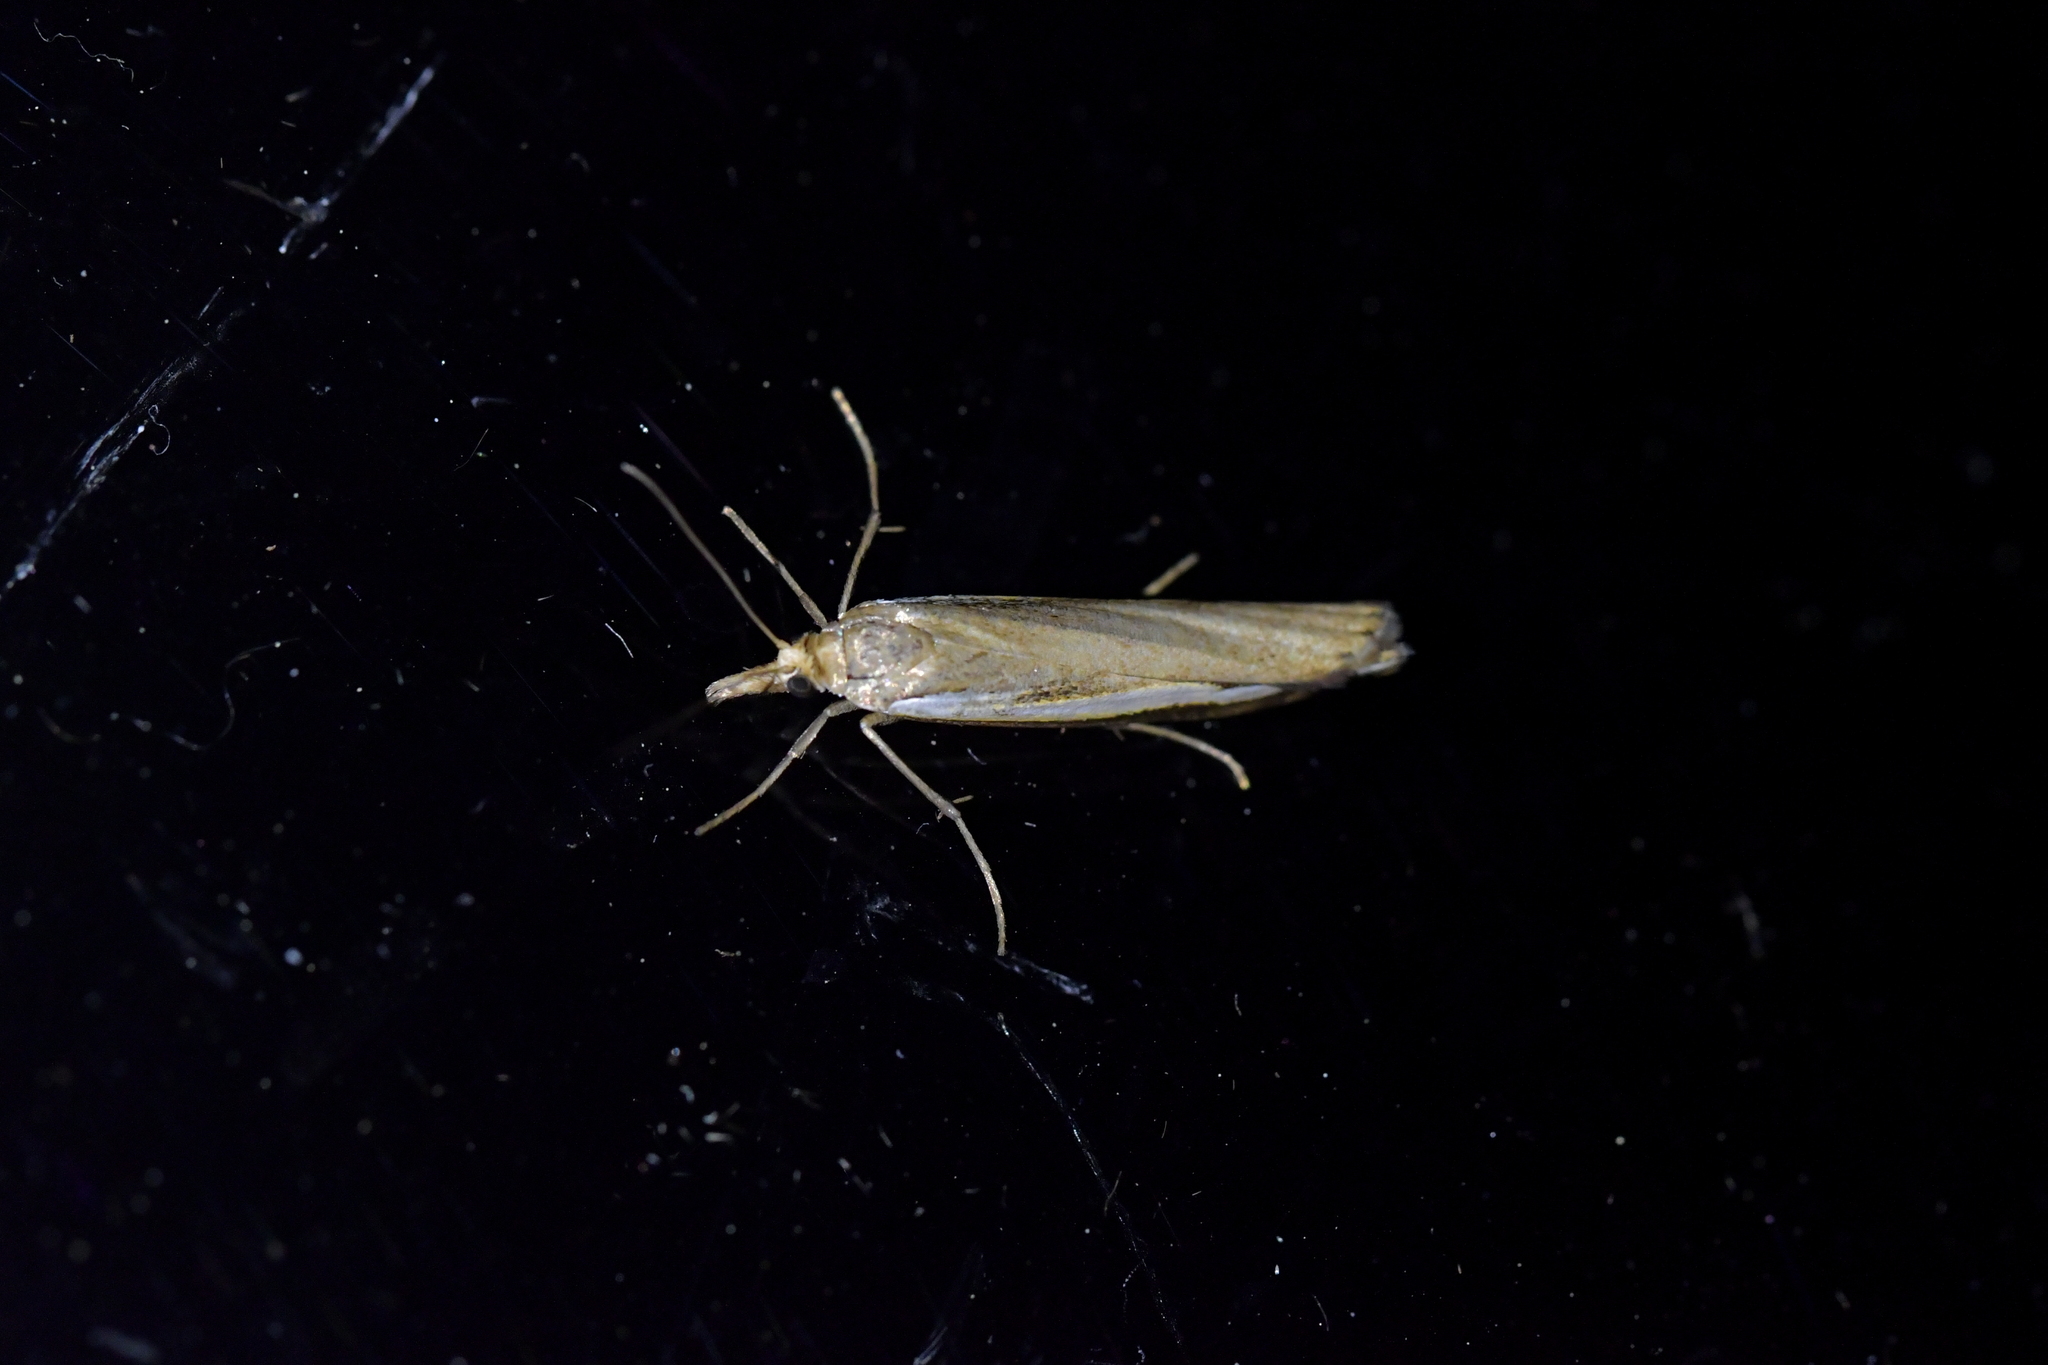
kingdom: Animalia
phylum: Arthropoda
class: Insecta
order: Lepidoptera
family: Crambidae
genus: Orocrambus
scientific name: Orocrambus flexuosellus
